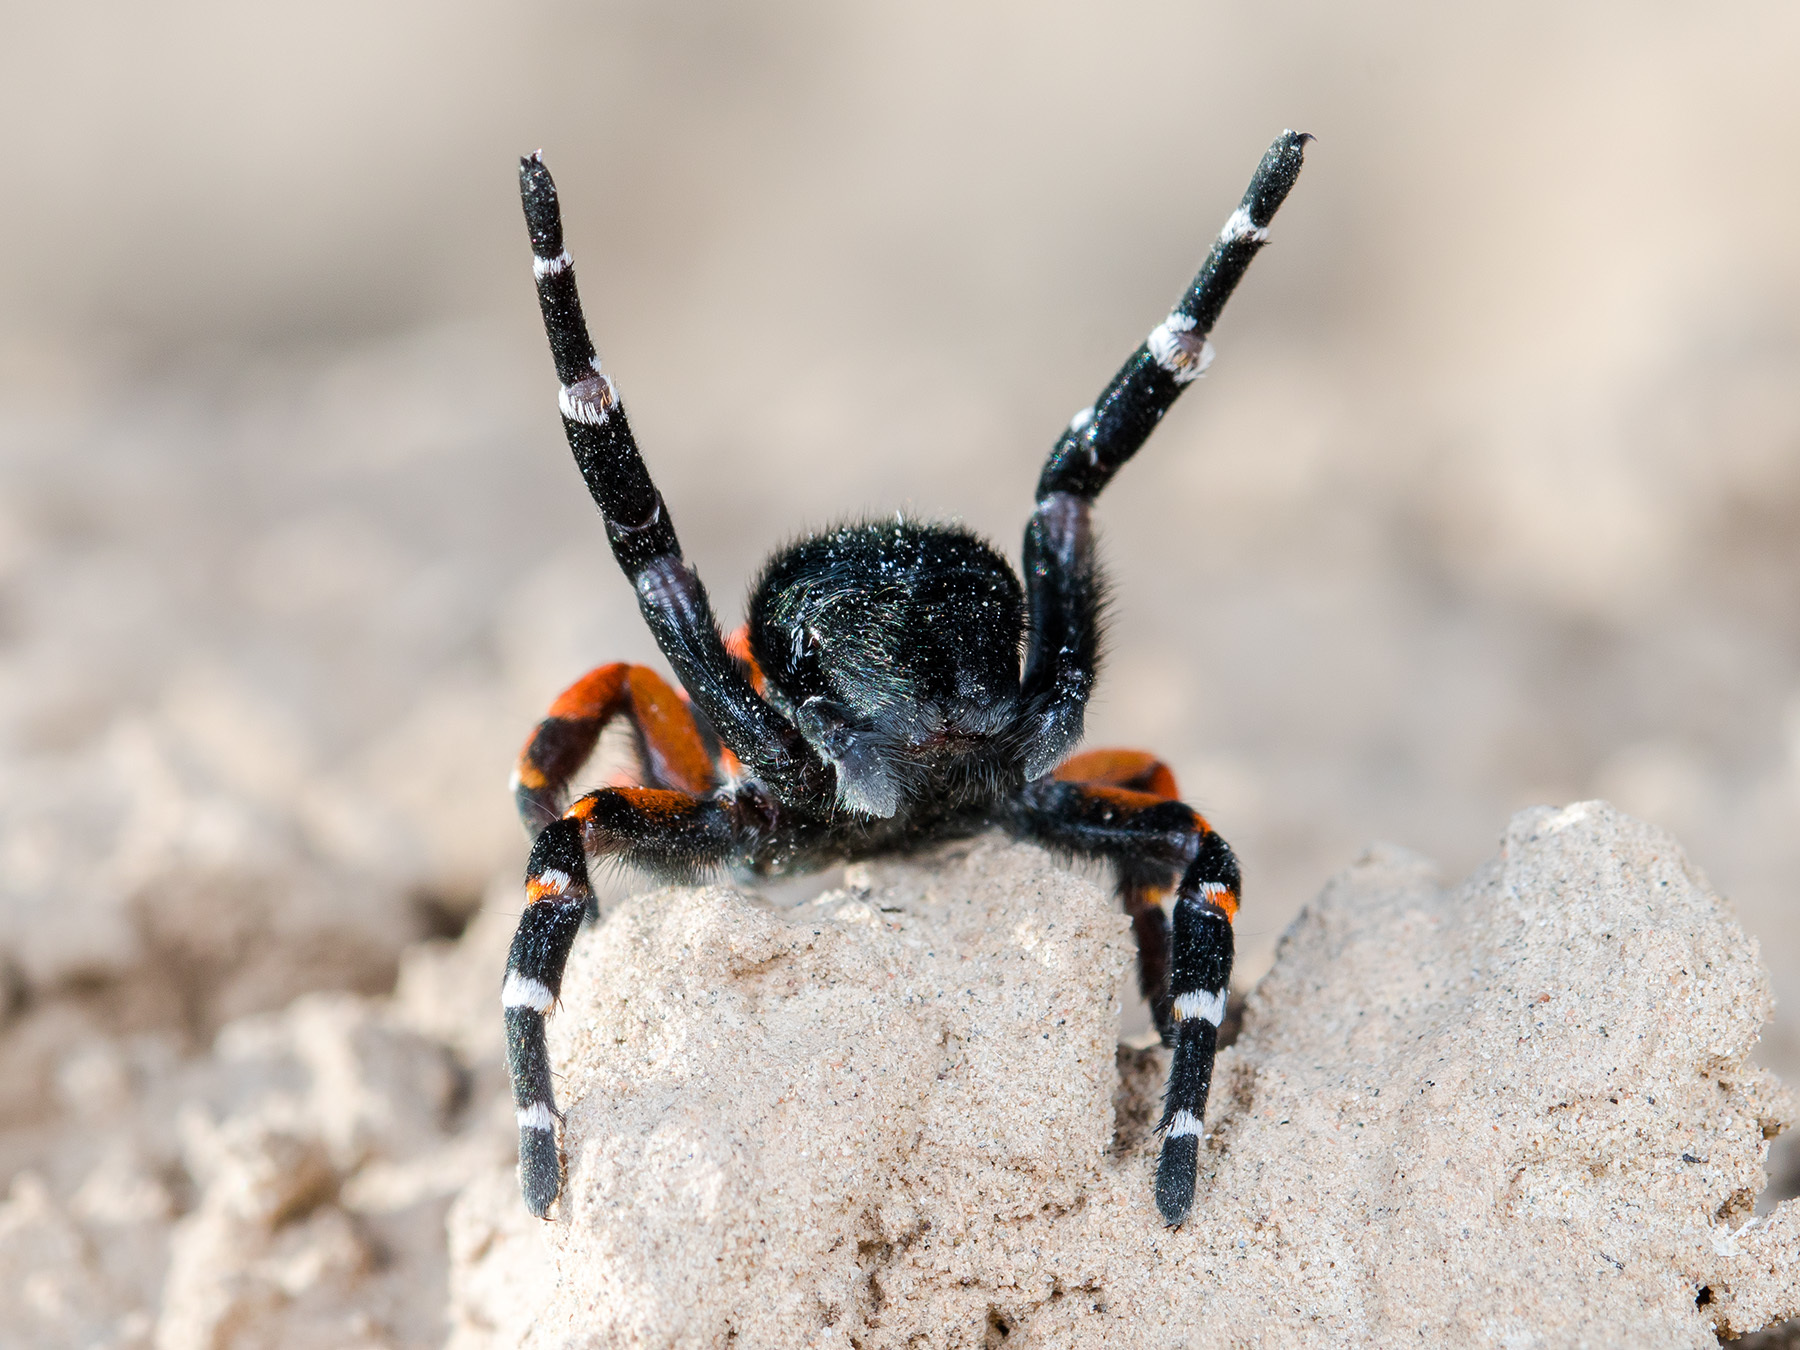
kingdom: Animalia
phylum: Arthropoda
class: Arachnida
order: Araneae
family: Eresidae
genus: Eresus
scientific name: Eresus kollari
